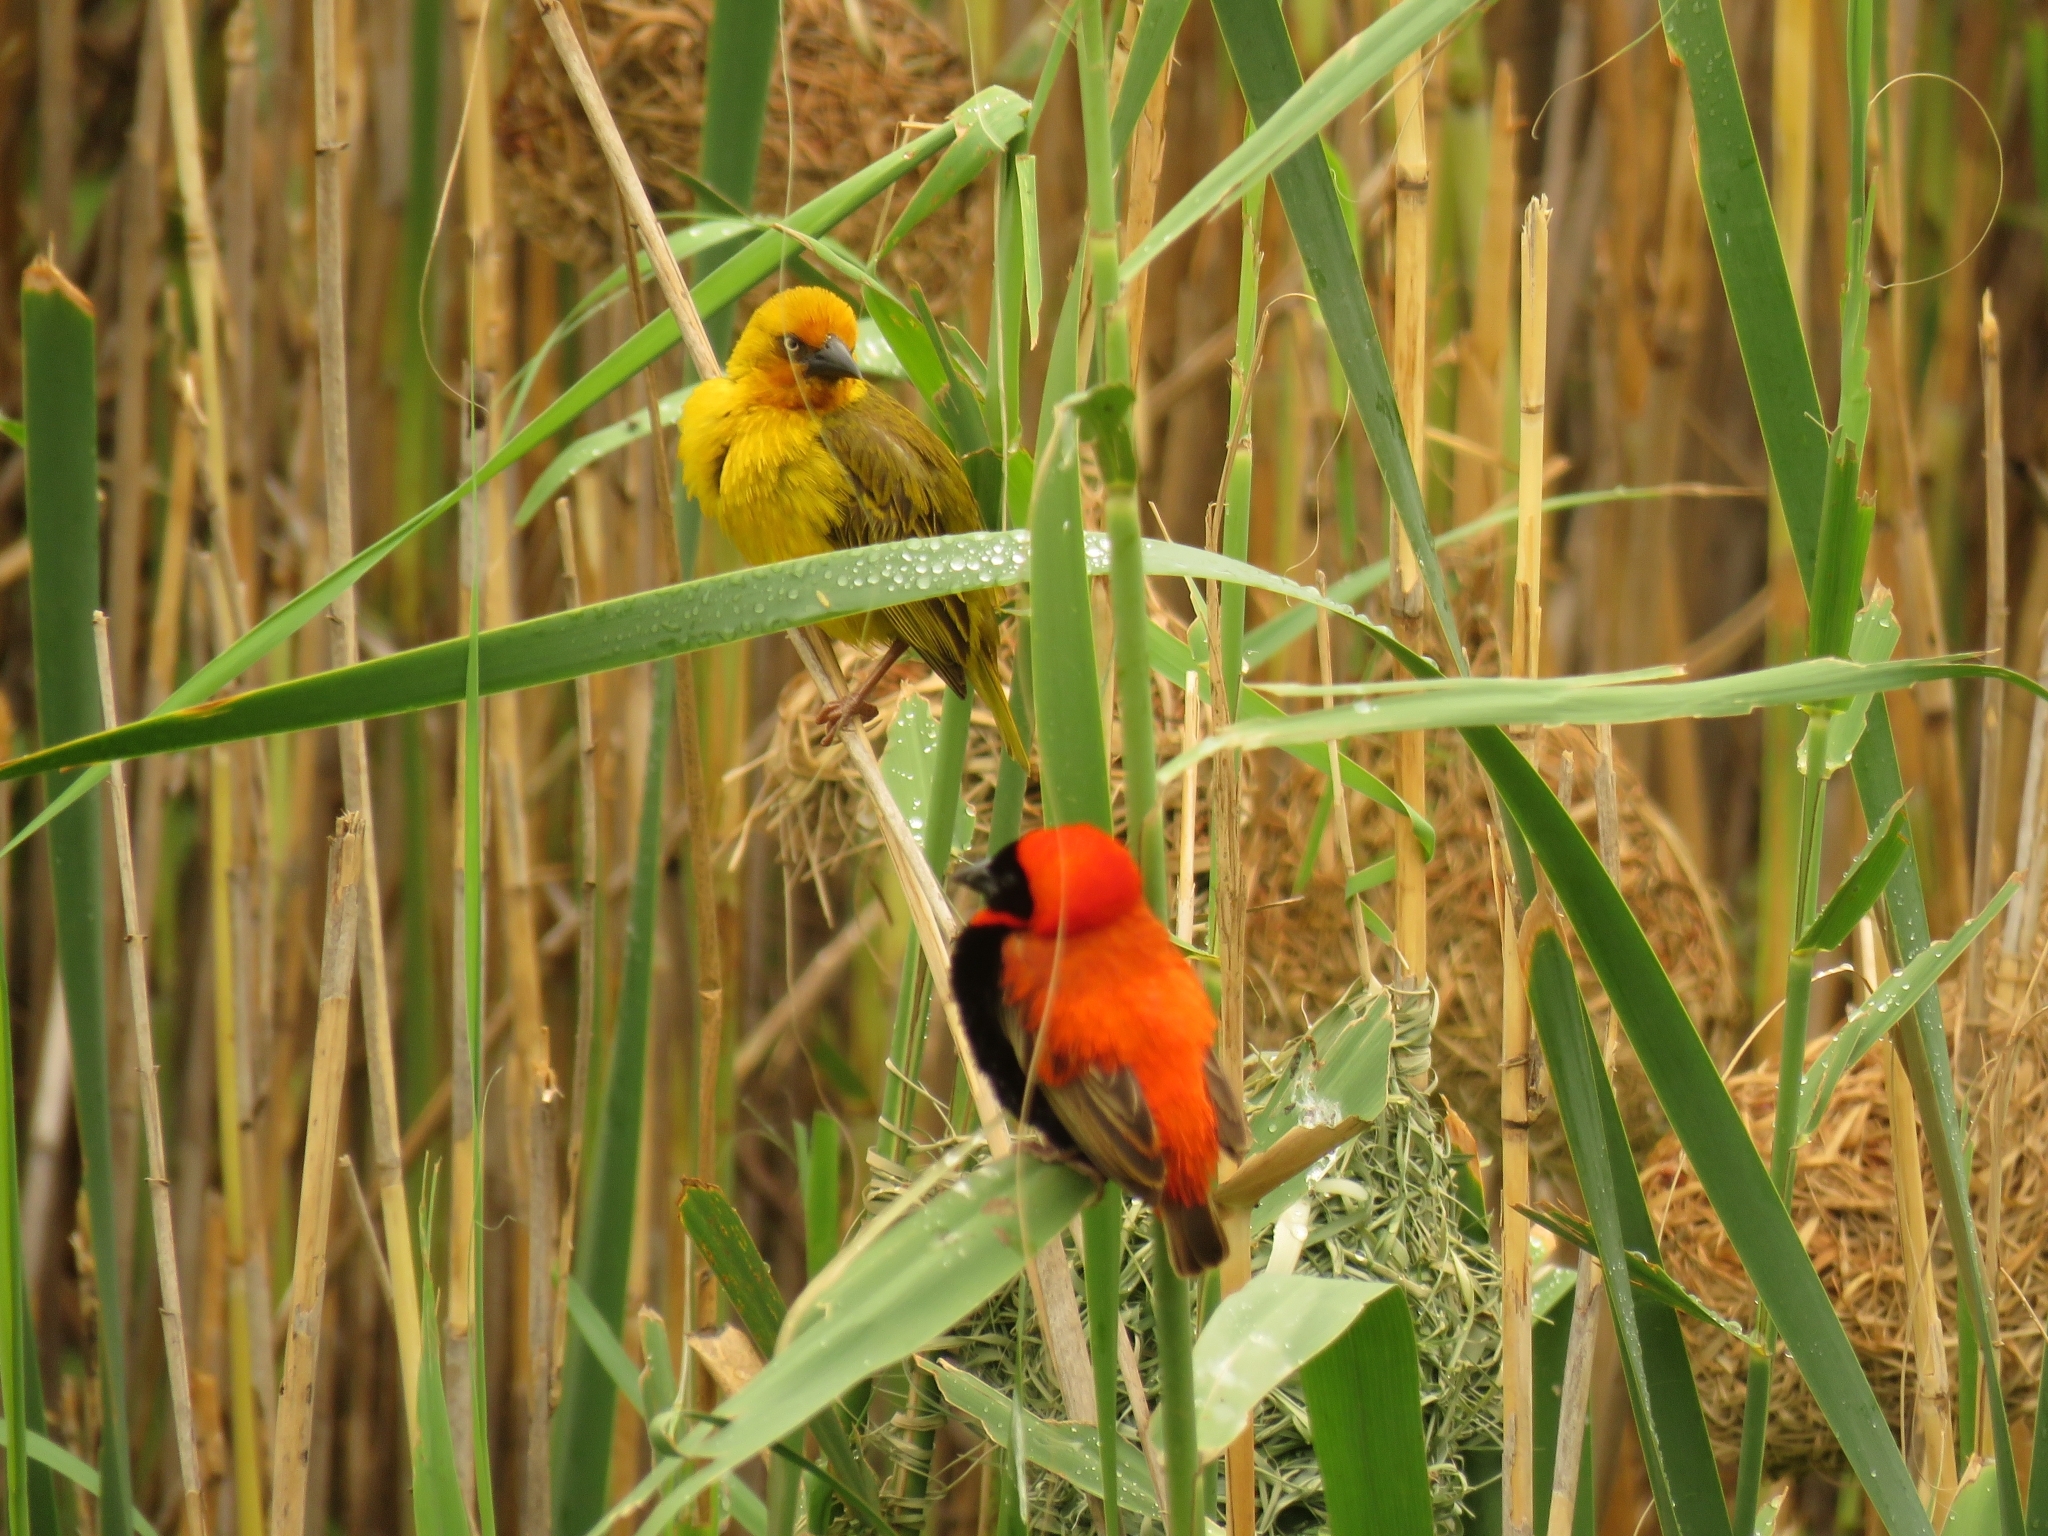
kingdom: Animalia
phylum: Chordata
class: Aves
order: Passeriformes
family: Ploceidae
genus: Ploceus
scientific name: Ploceus capensis
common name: Cape weaver
